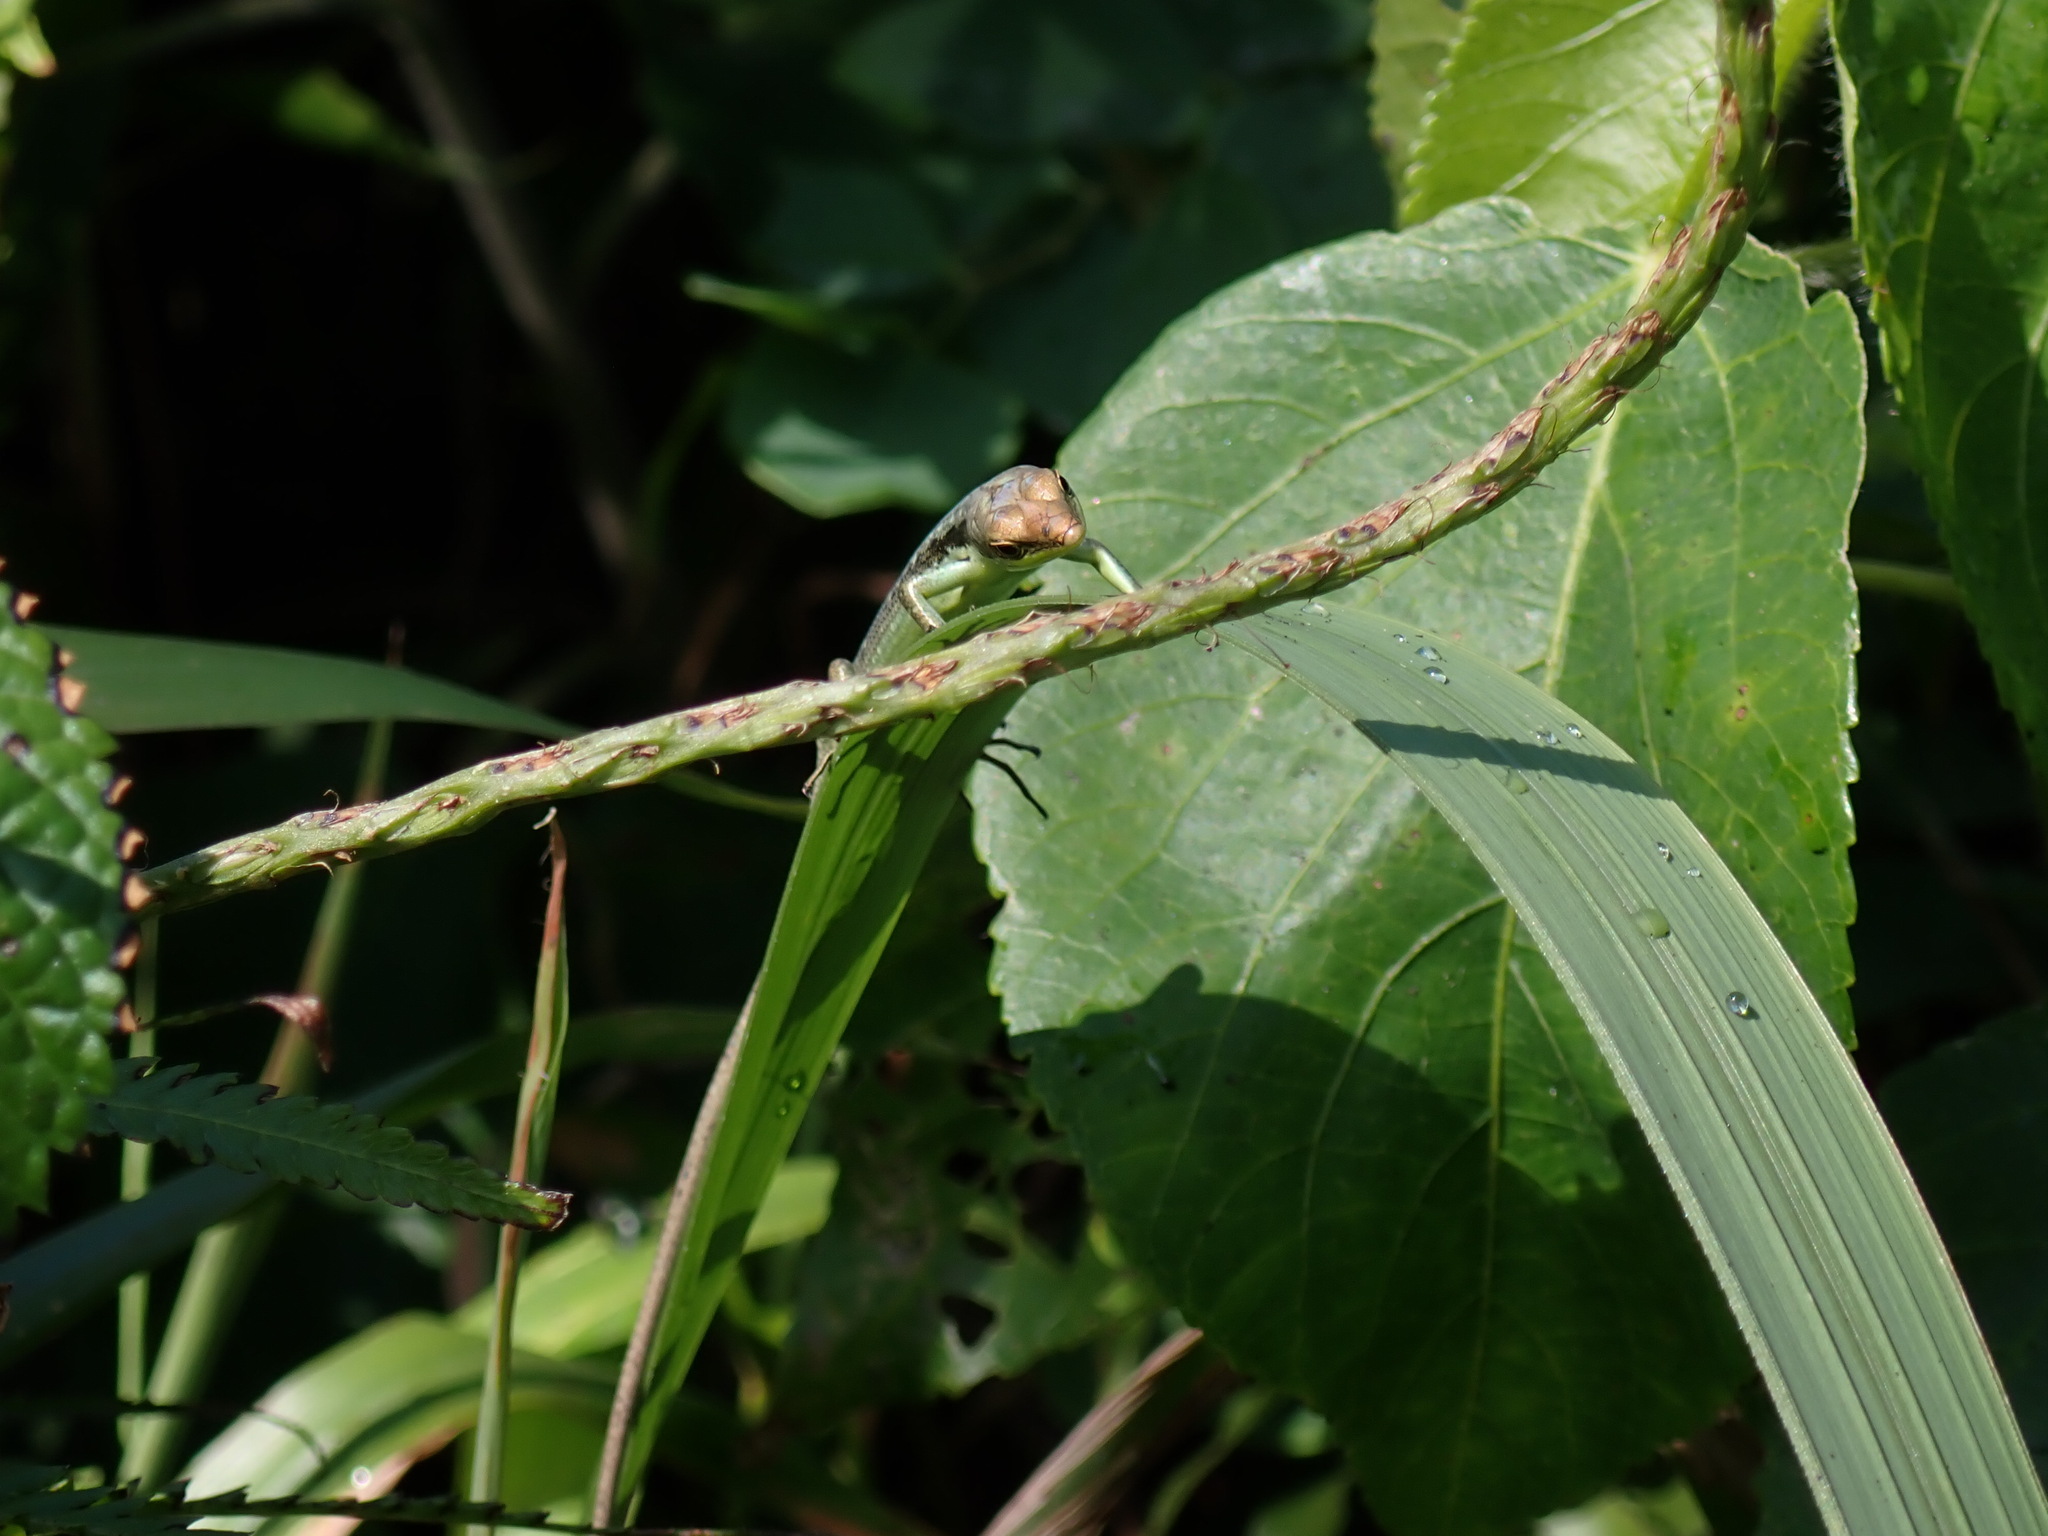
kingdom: Animalia
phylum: Chordata
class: Squamata
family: Scincidae
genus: Emoia
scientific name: Emoia cyanogaster
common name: Teal emo skink
